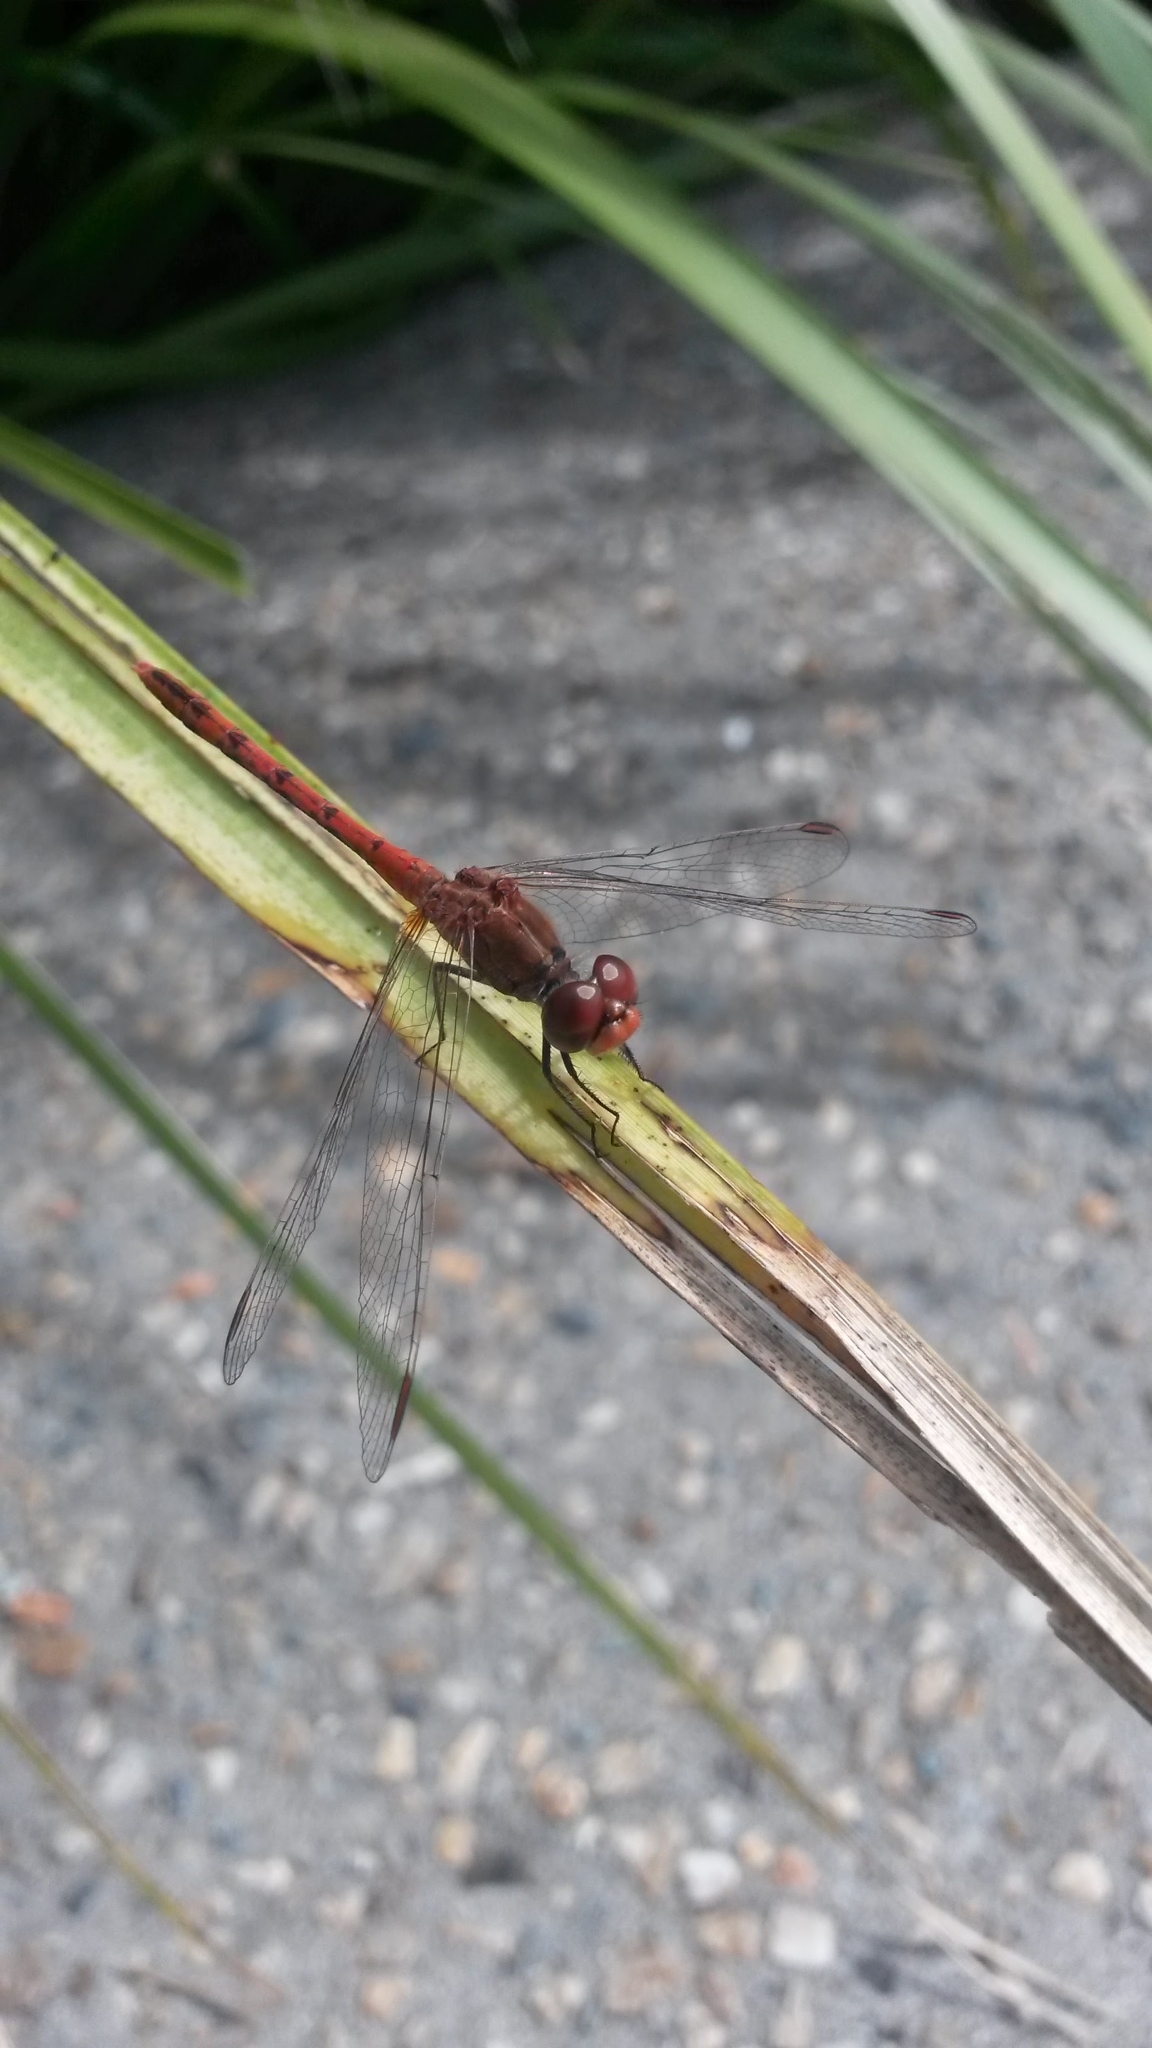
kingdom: Animalia
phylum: Arthropoda
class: Insecta
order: Odonata
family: Libellulidae
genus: Diplacodes
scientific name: Diplacodes bipunctata
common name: Red percher dragonfly
